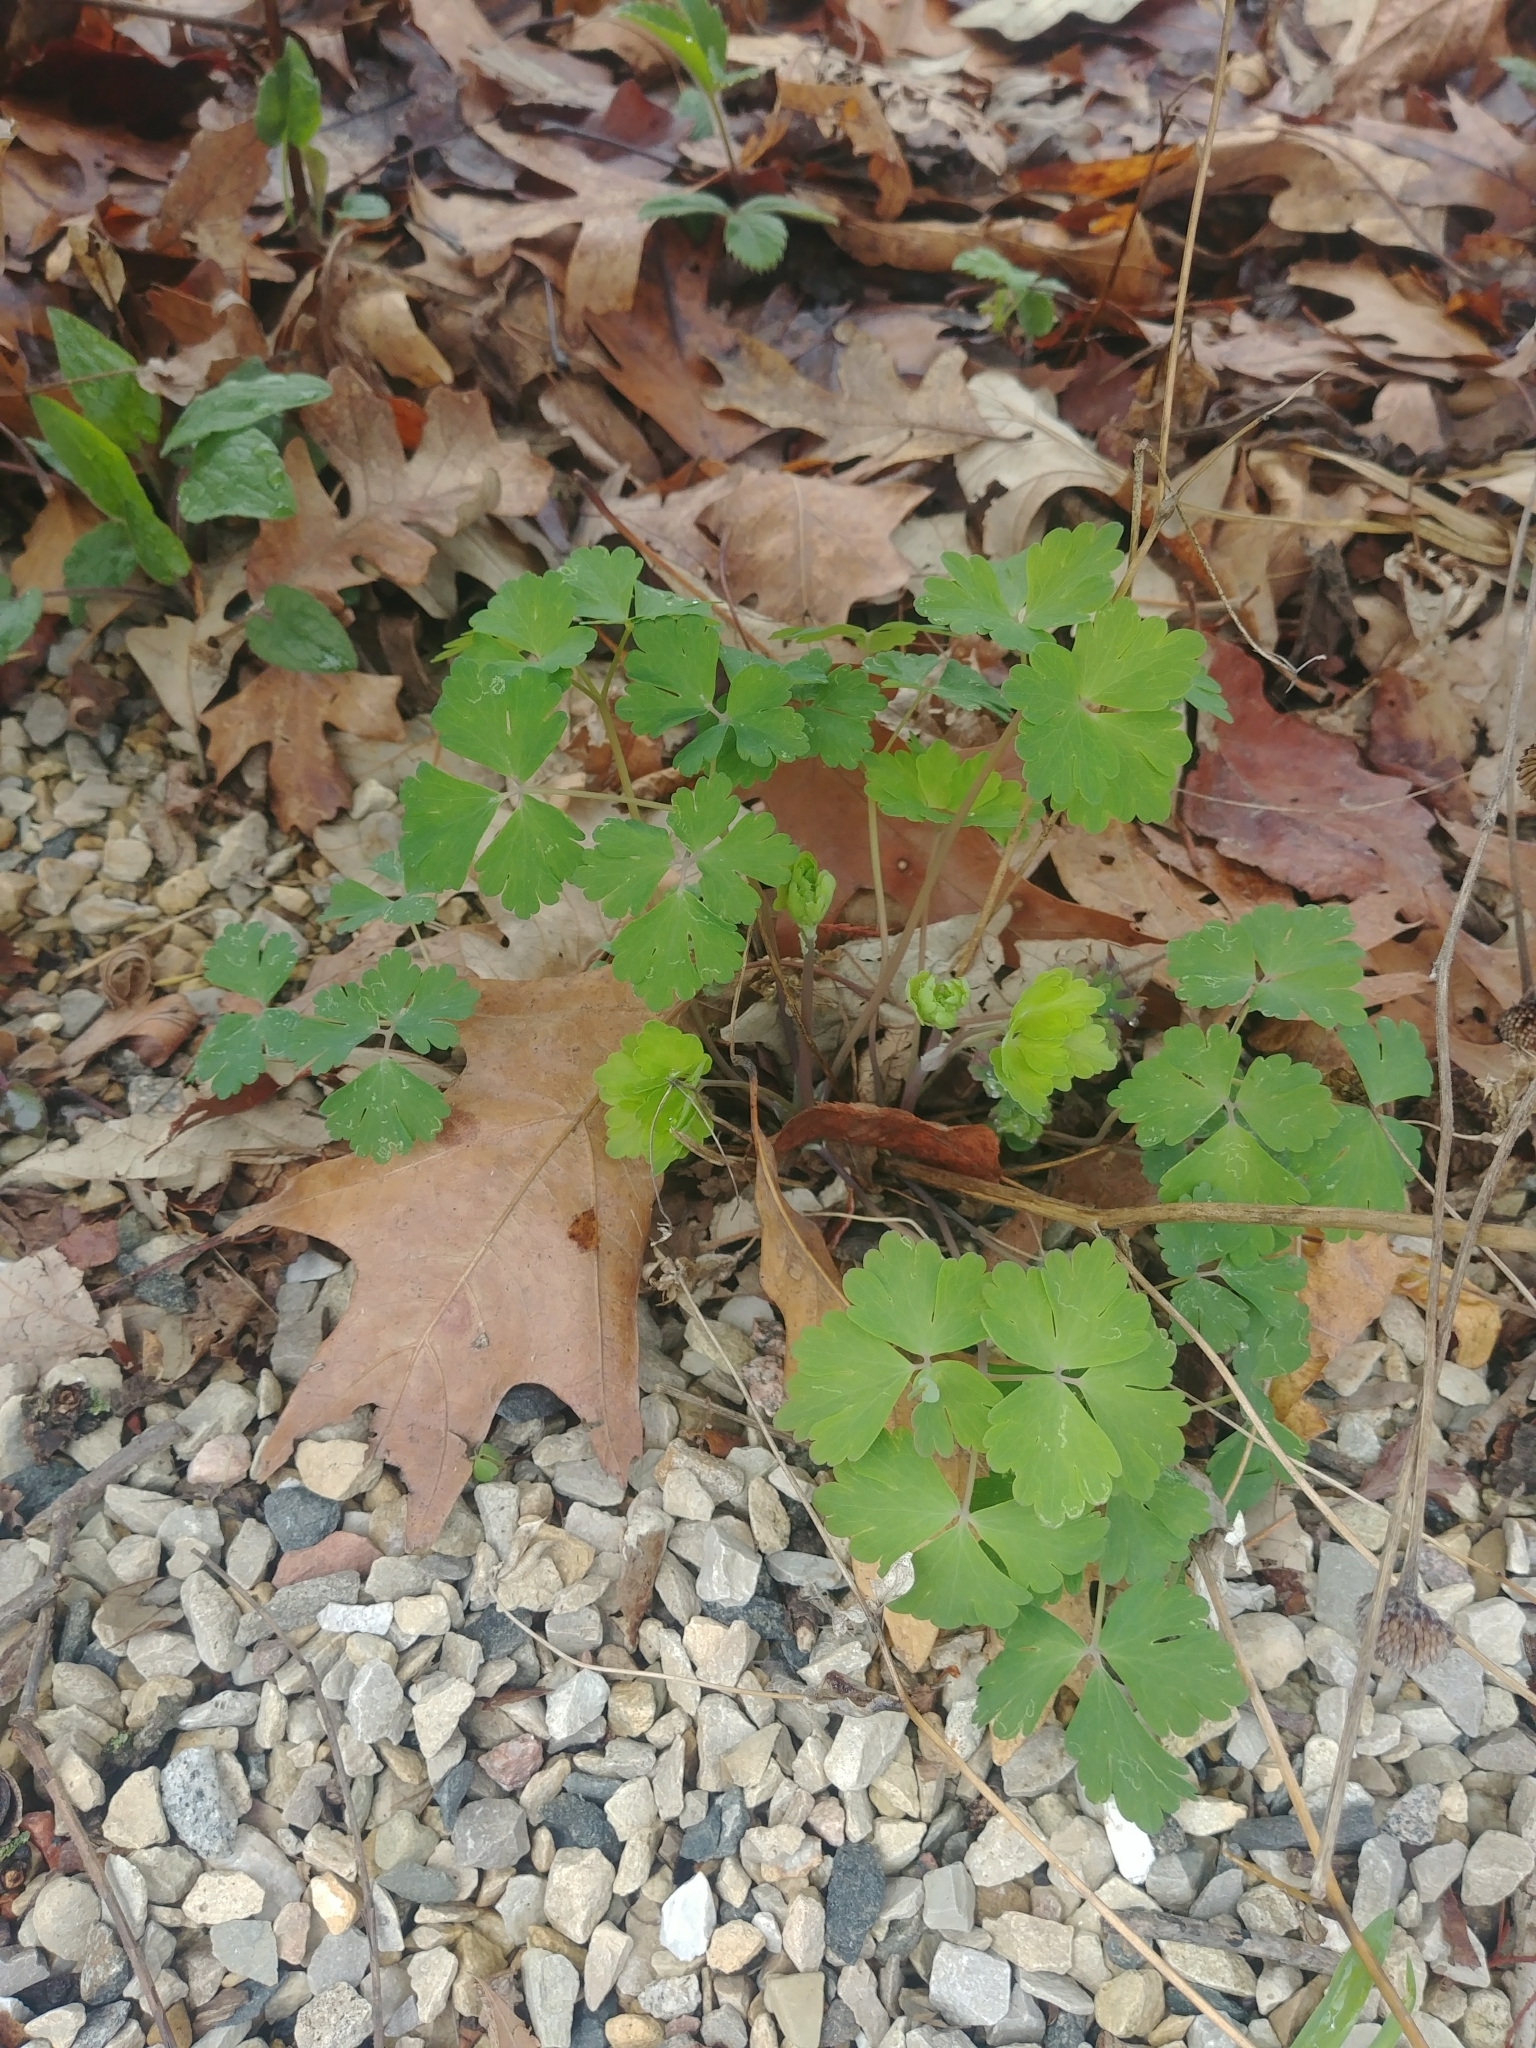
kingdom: Plantae
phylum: Tracheophyta
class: Magnoliopsida
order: Ranunculales
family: Ranunculaceae
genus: Aquilegia
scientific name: Aquilegia canadensis
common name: American columbine
